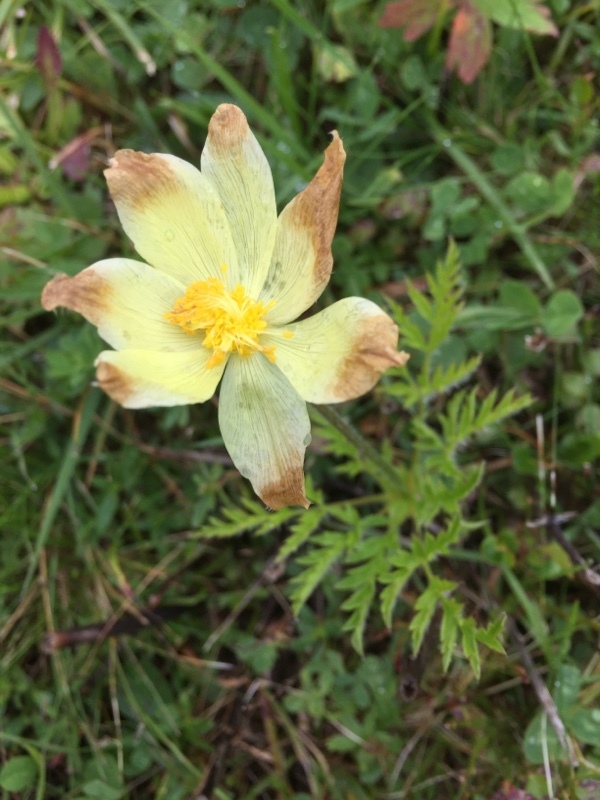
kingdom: Plantae
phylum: Tracheophyta
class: Magnoliopsida
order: Ranunculales
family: Ranunculaceae
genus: Pulsatilla
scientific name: Pulsatilla alpina
